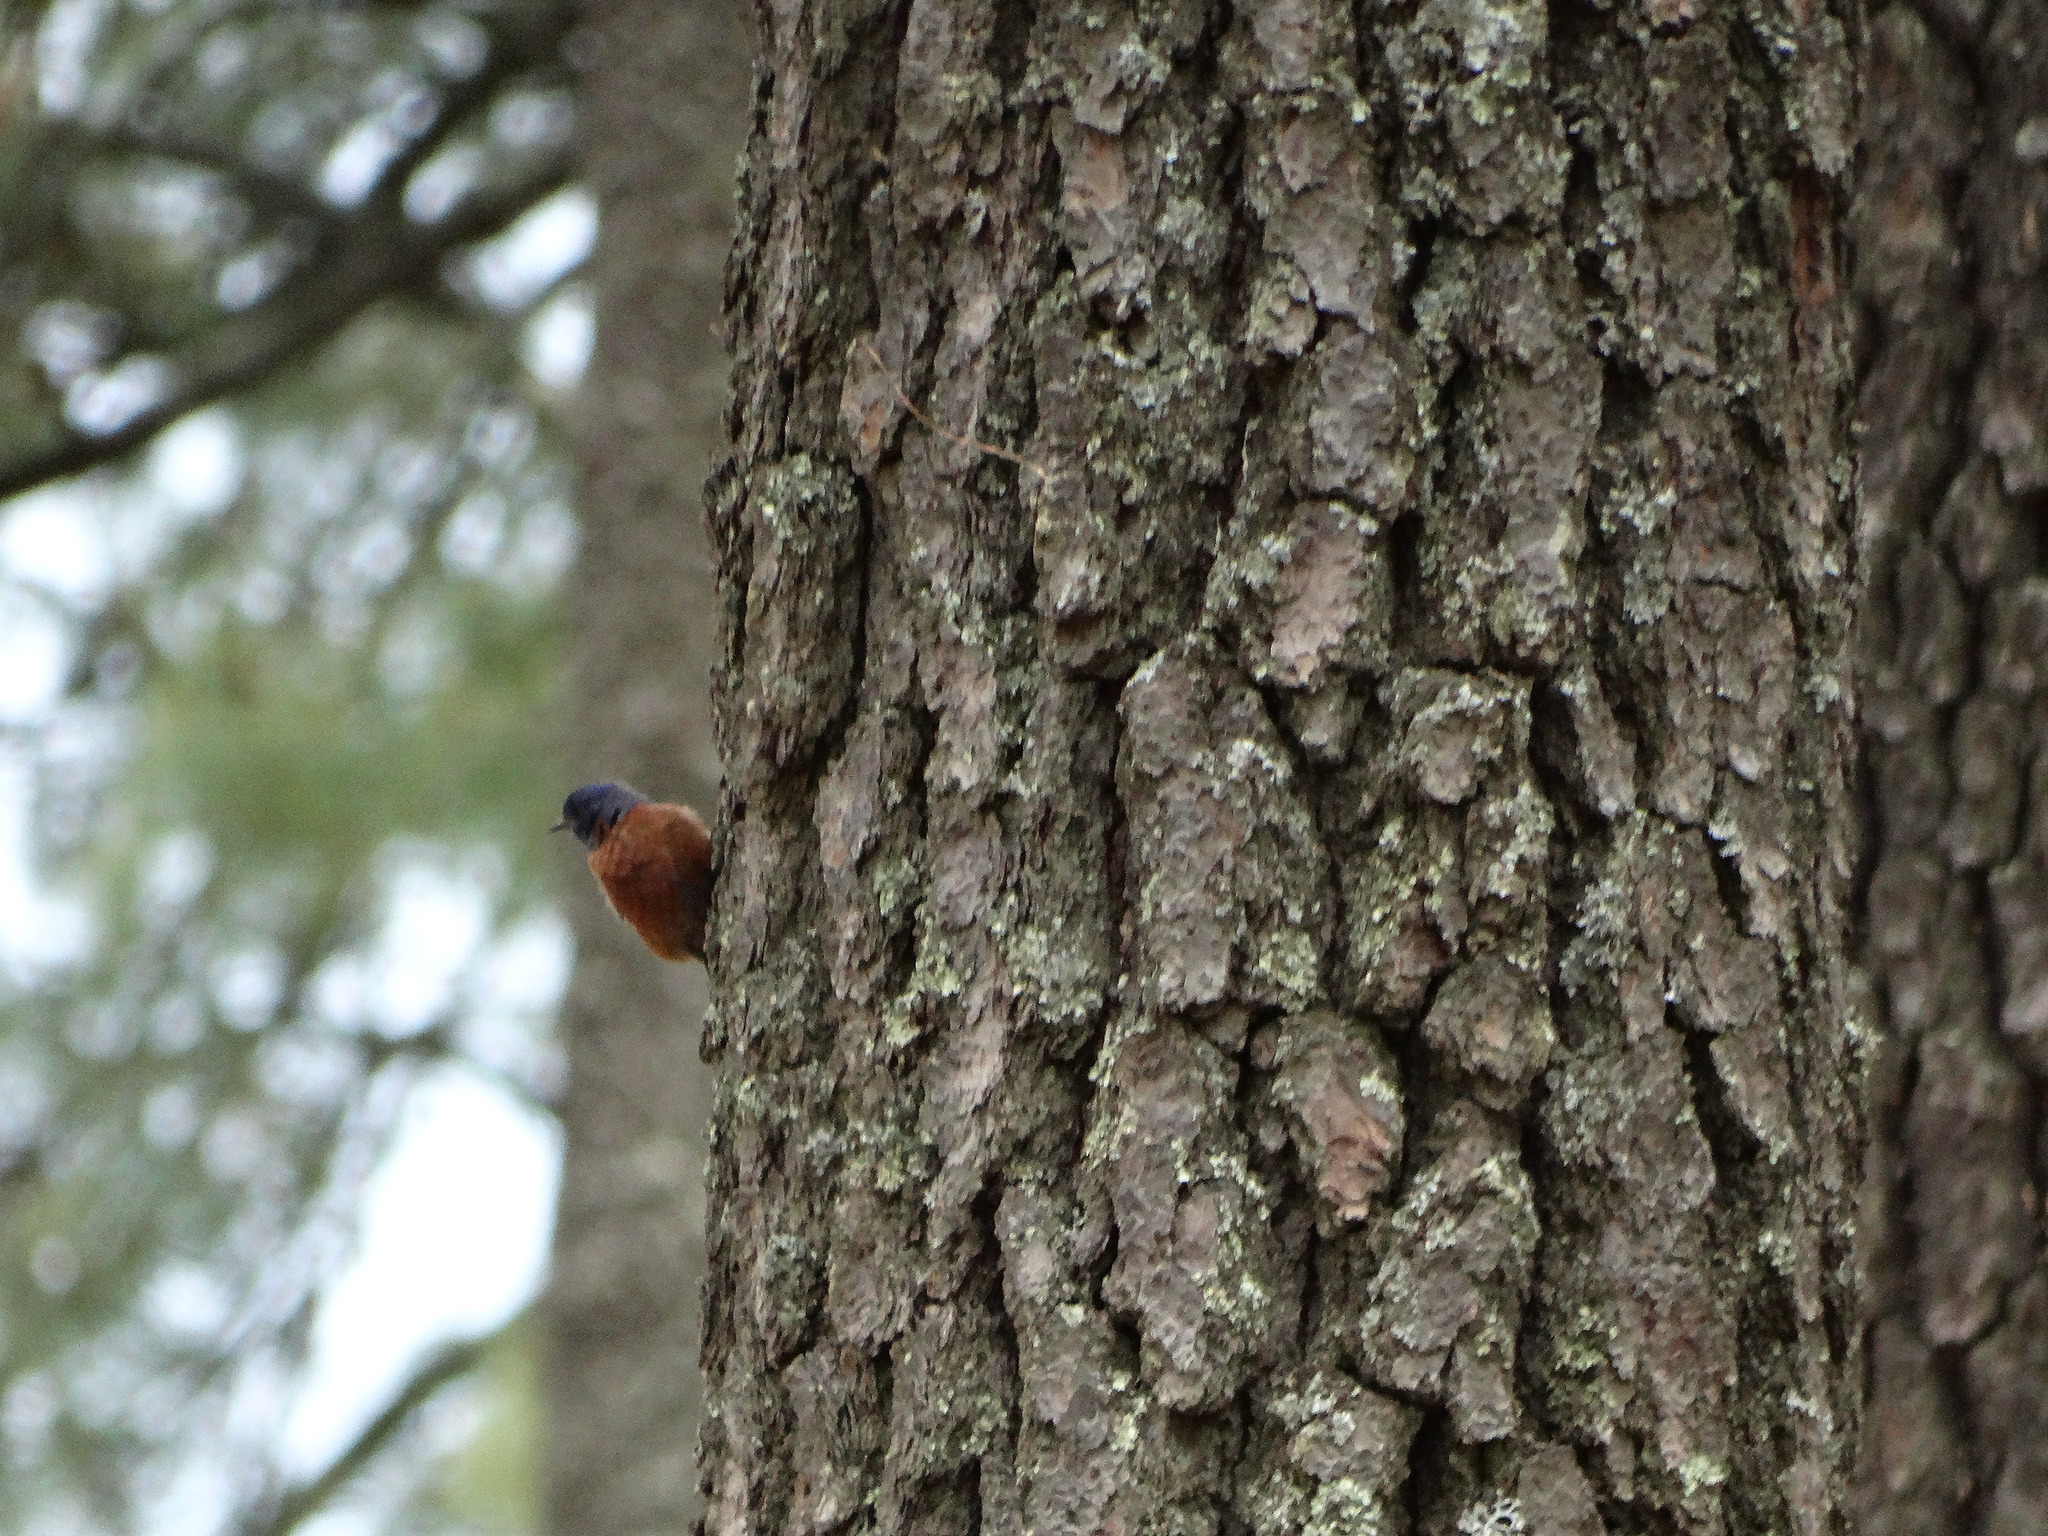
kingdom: Animalia
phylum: Chordata
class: Aves
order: Passeriformes
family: Turdidae
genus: Sialia
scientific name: Sialia mexicana
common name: Western bluebird
